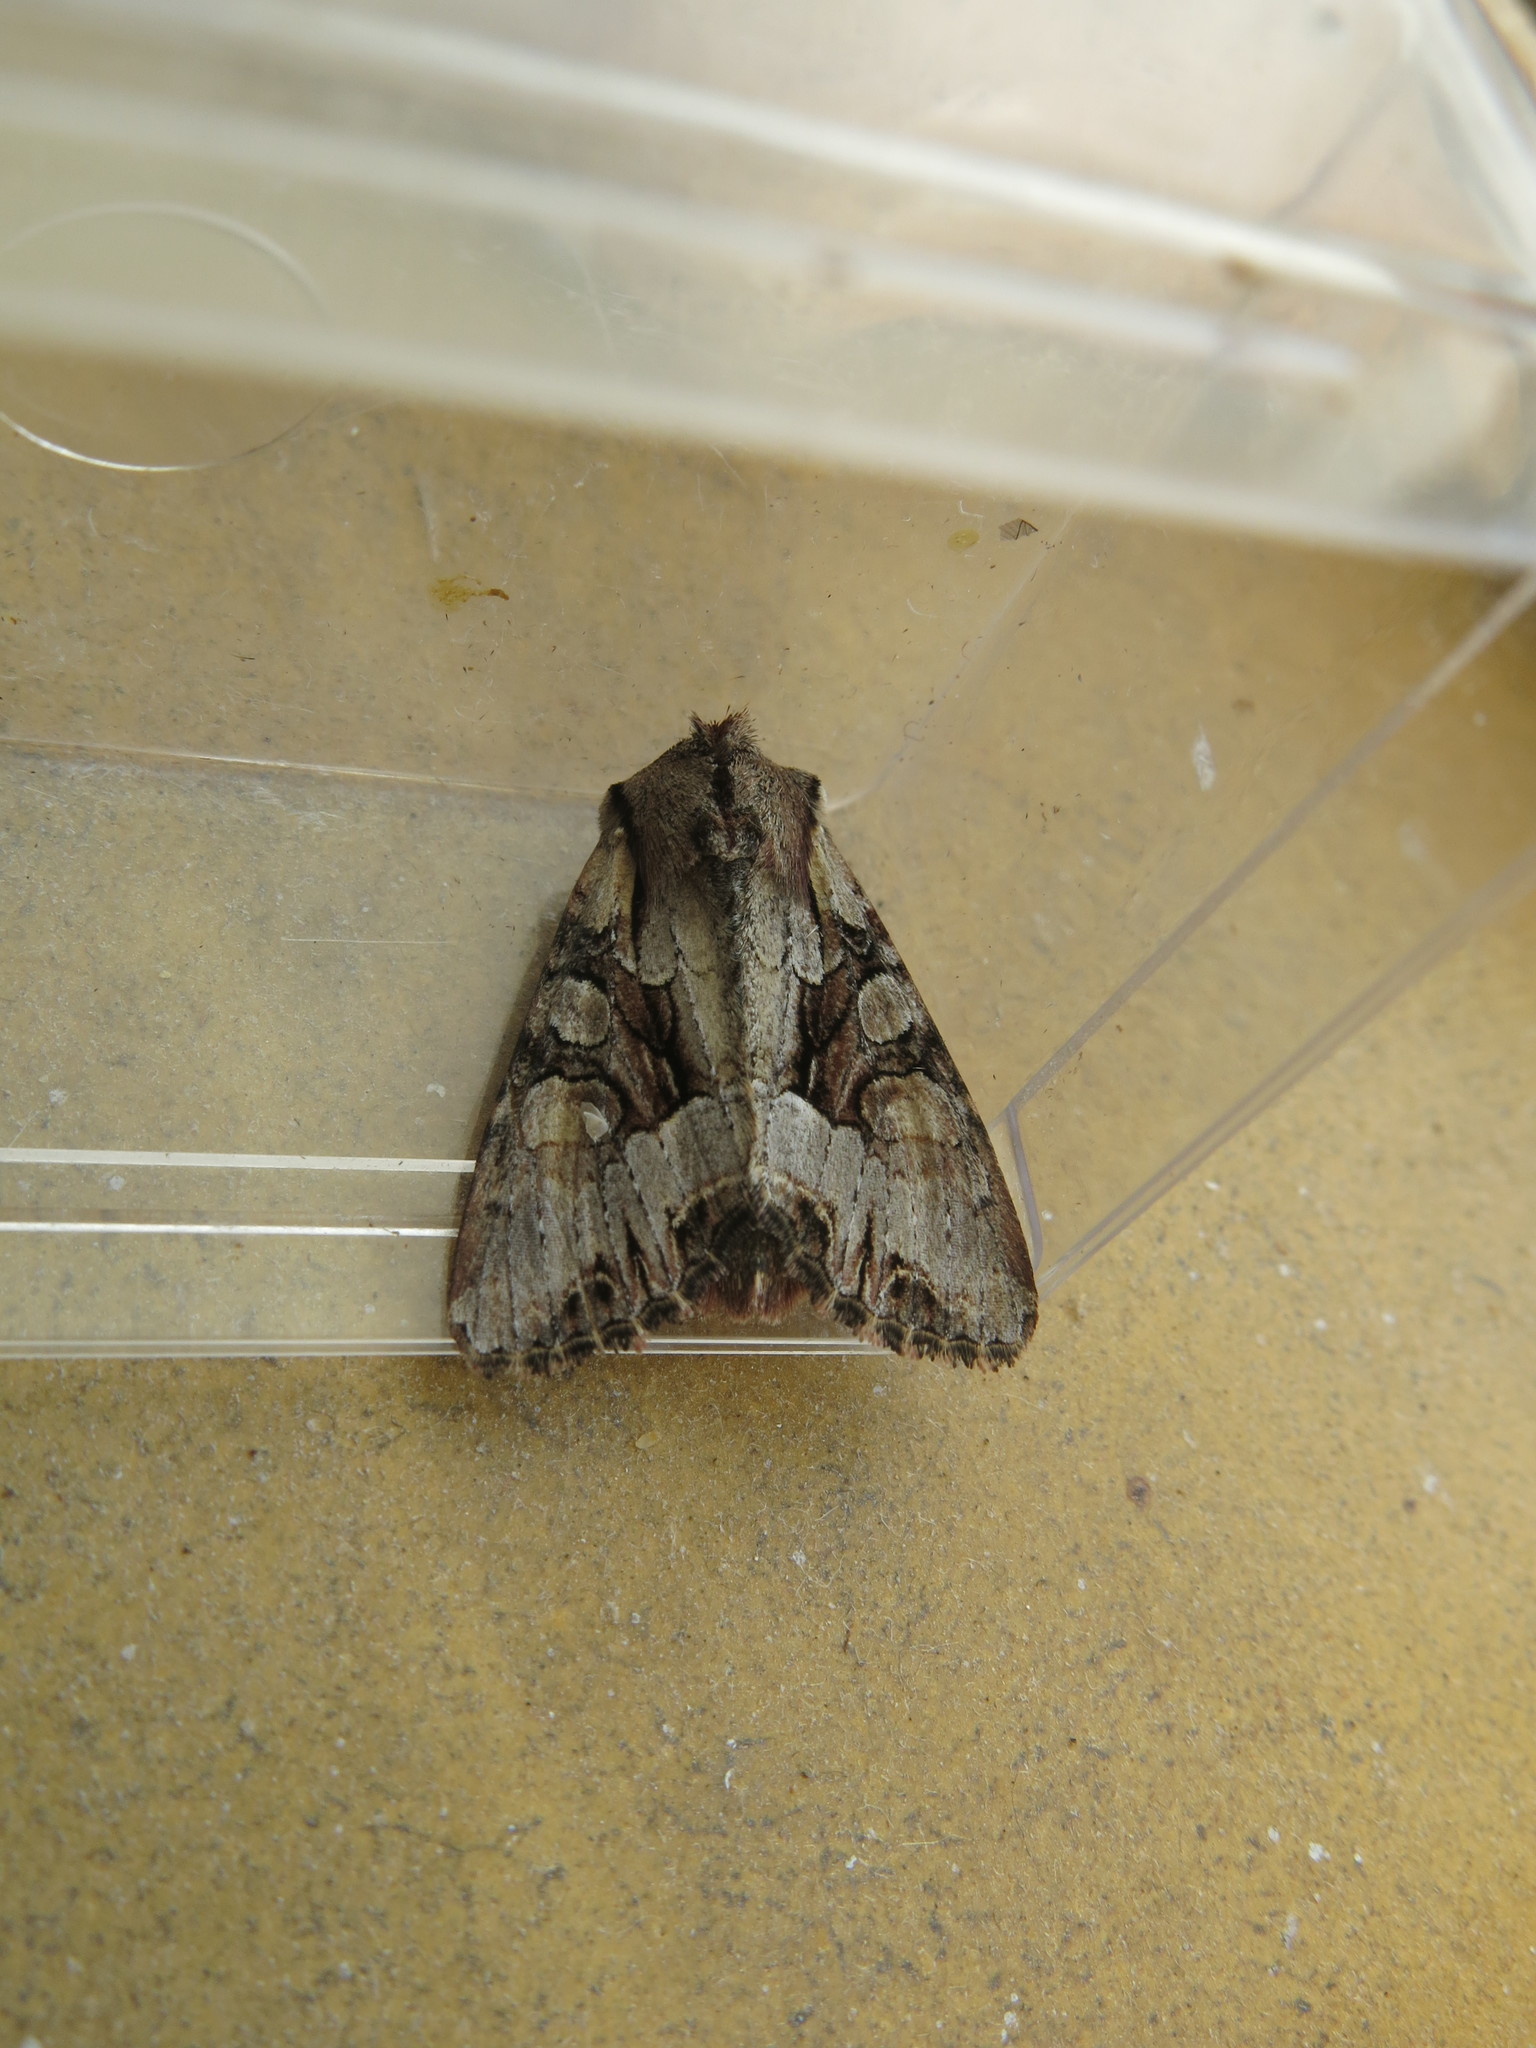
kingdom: Animalia
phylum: Arthropoda
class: Insecta
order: Lepidoptera
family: Noctuidae
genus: Lacanobia
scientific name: Lacanobia w-latinum
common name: Light brocade
